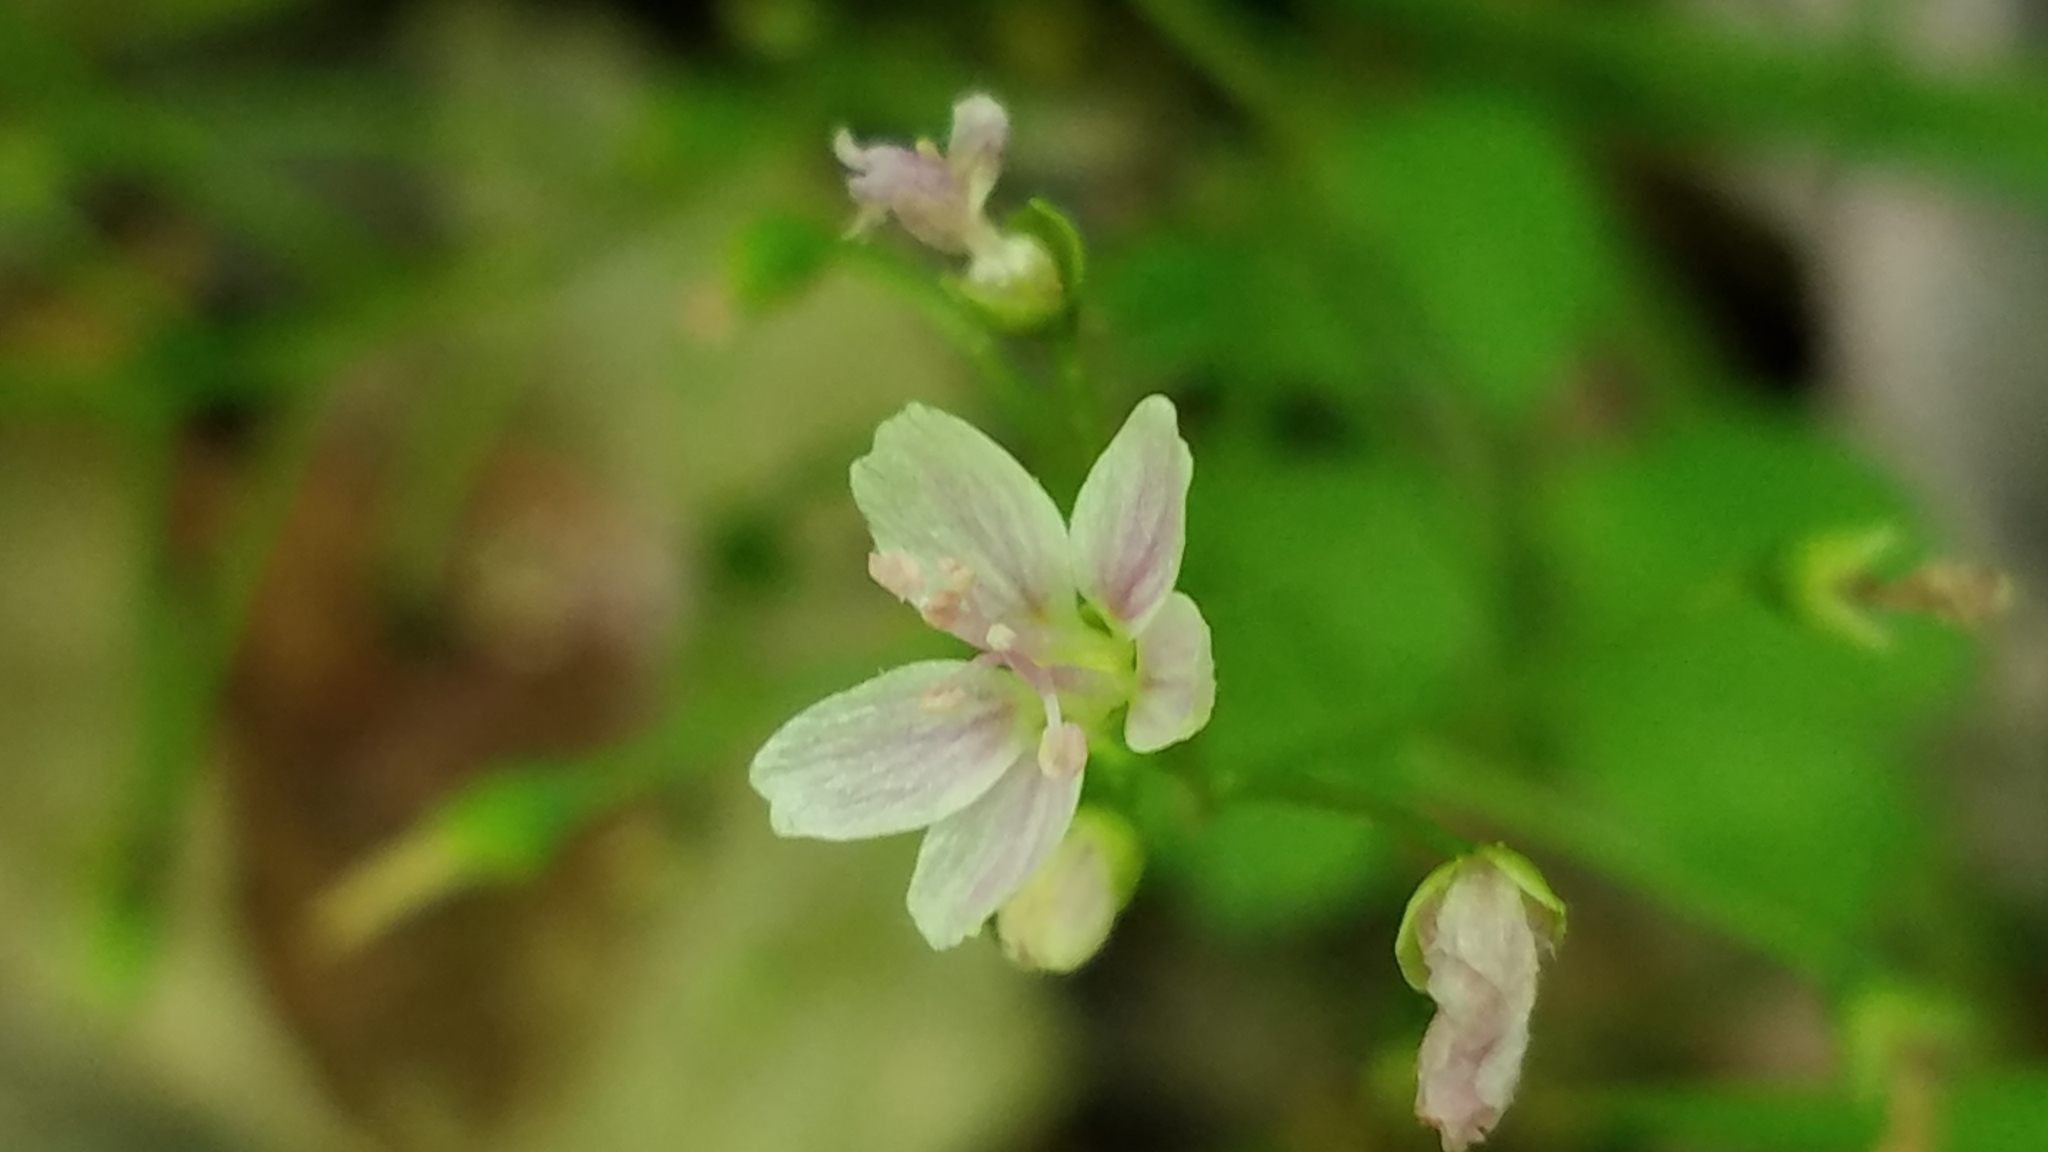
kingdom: Plantae
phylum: Tracheophyta
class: Magnoliopsida
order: Caryophyllales
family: Montiaceae
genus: Claytonia
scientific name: Claytonia virginica
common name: Virginia springbeauty
